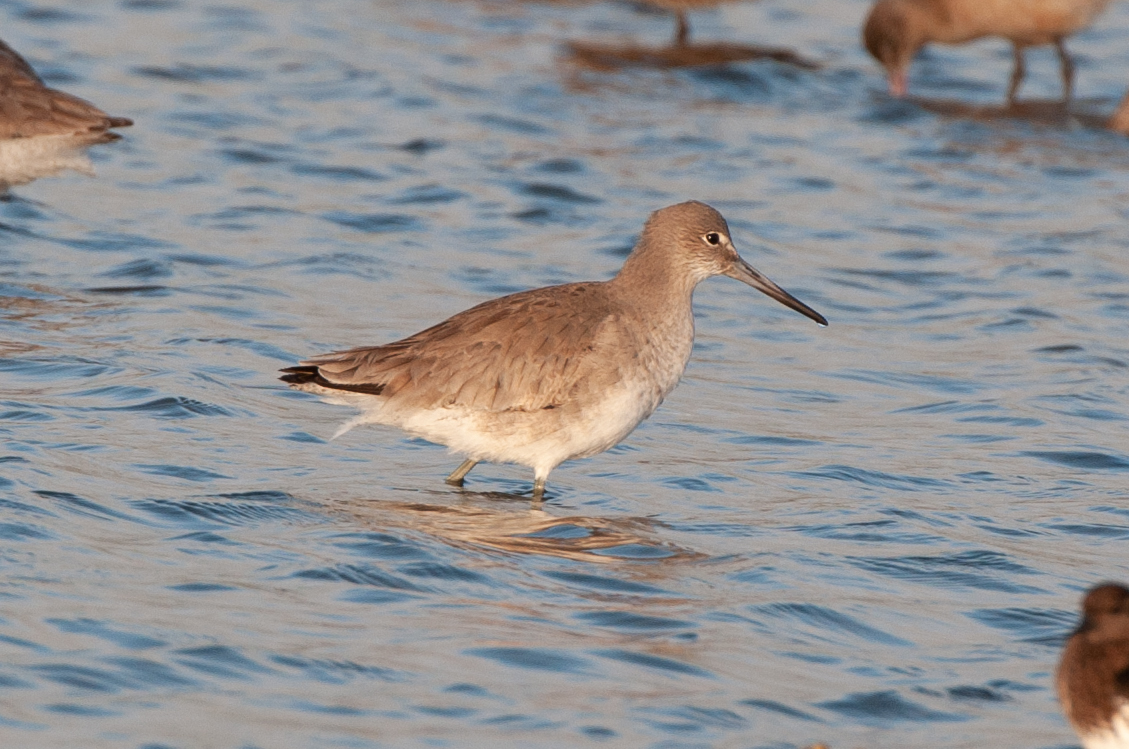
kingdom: Animalia
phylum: Chordata
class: Aves
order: Charadriiformes
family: Scolopacidae
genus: Tringa
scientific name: Tringa semipalmata
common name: Willet
